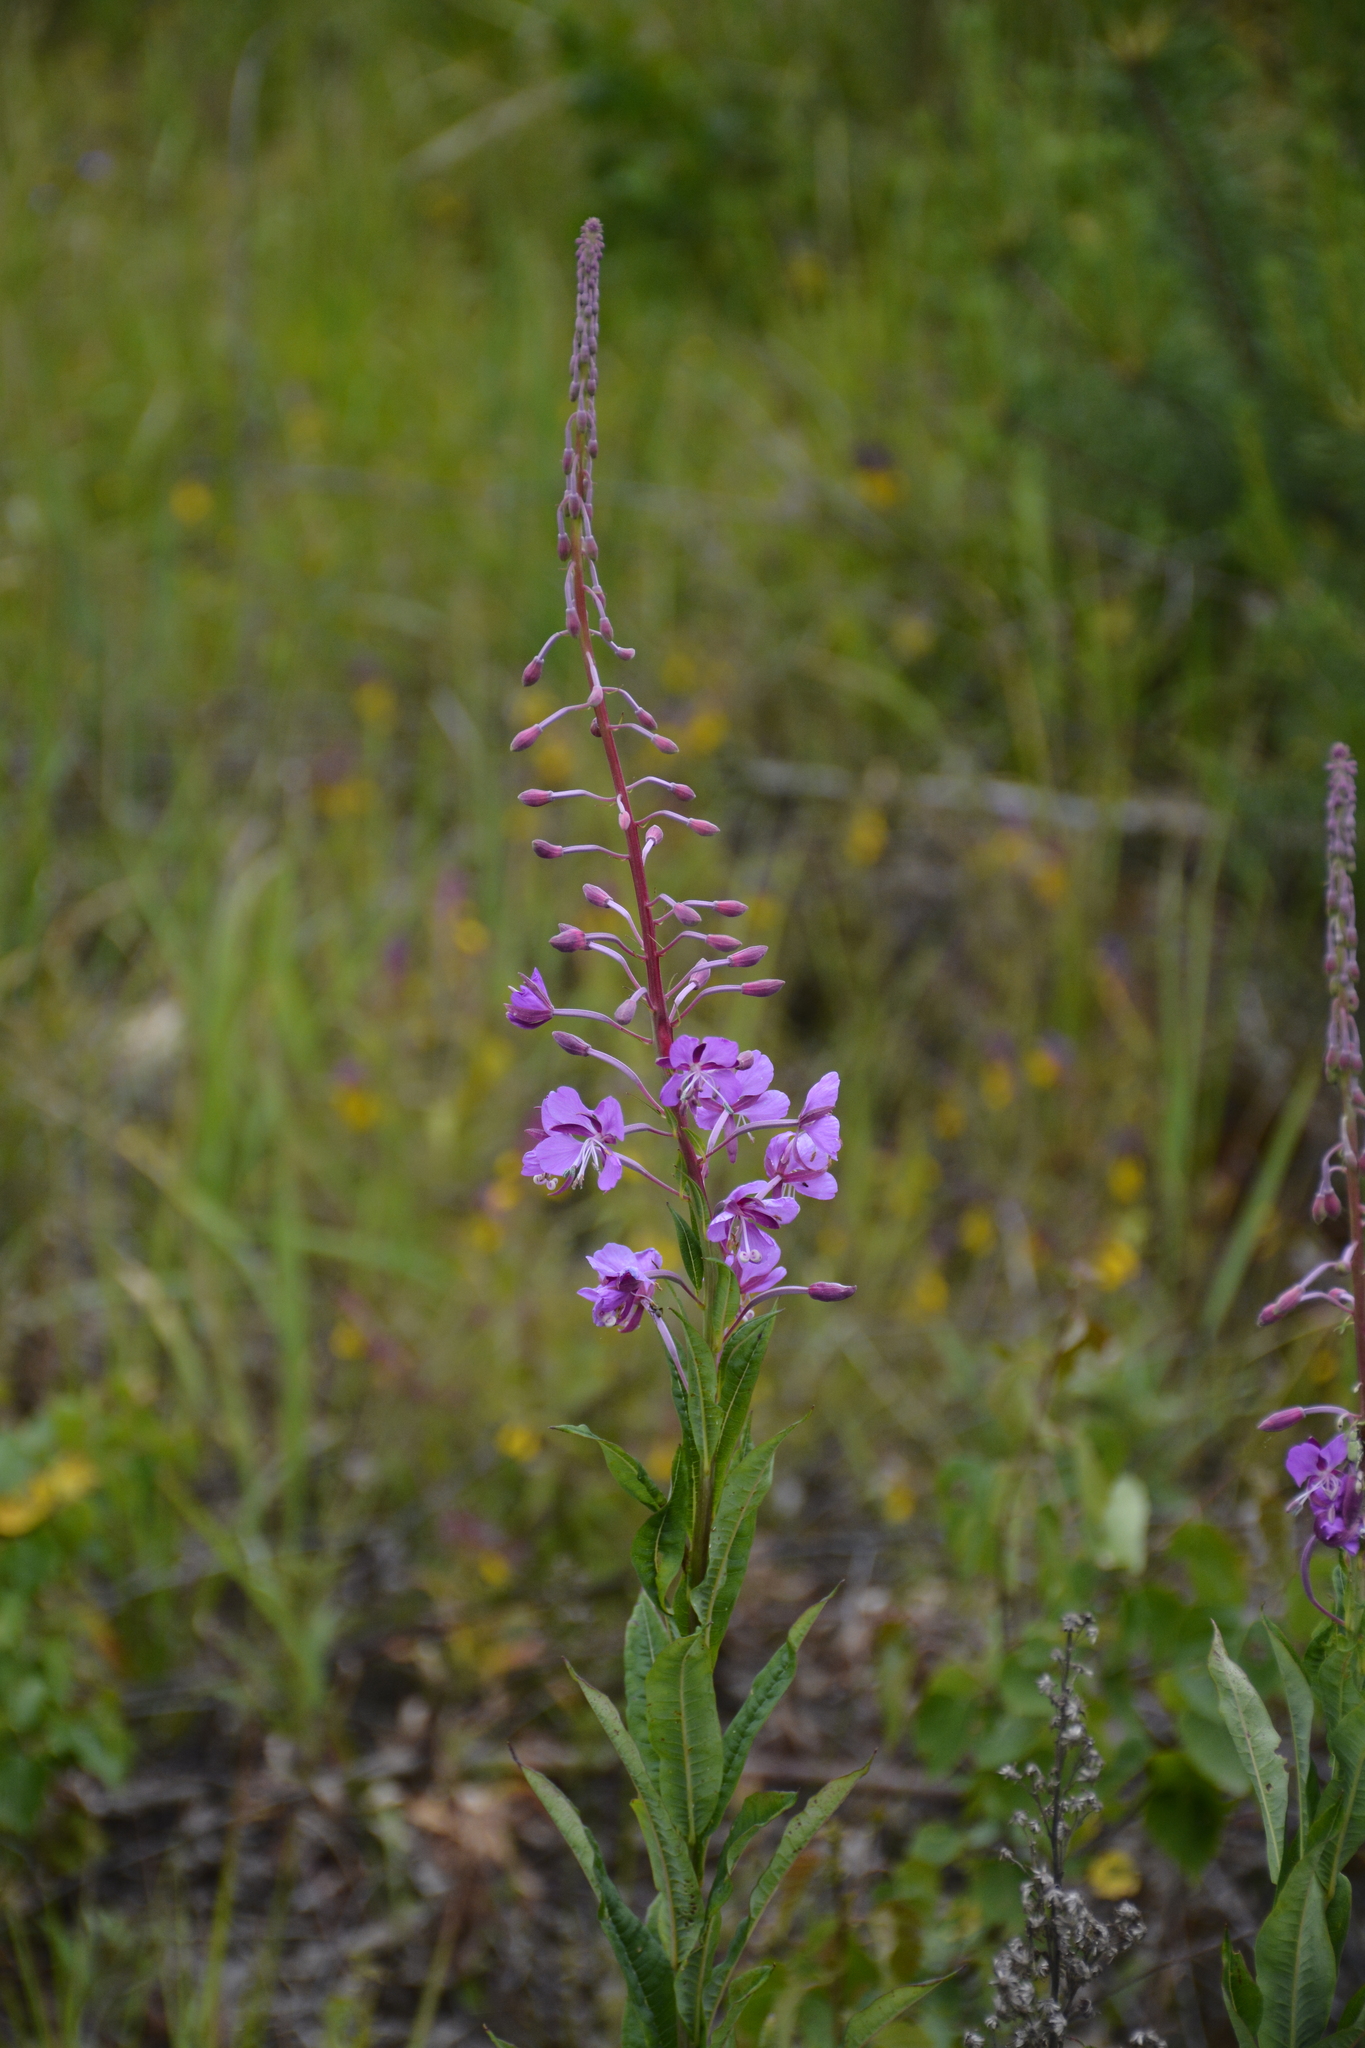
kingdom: Plantae
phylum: Tracheophyta
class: Magnoliopsida
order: Myrtales
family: Onagraceae
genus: Chamaenerion
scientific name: Chamaenerion angustifolium
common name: Fireweed
